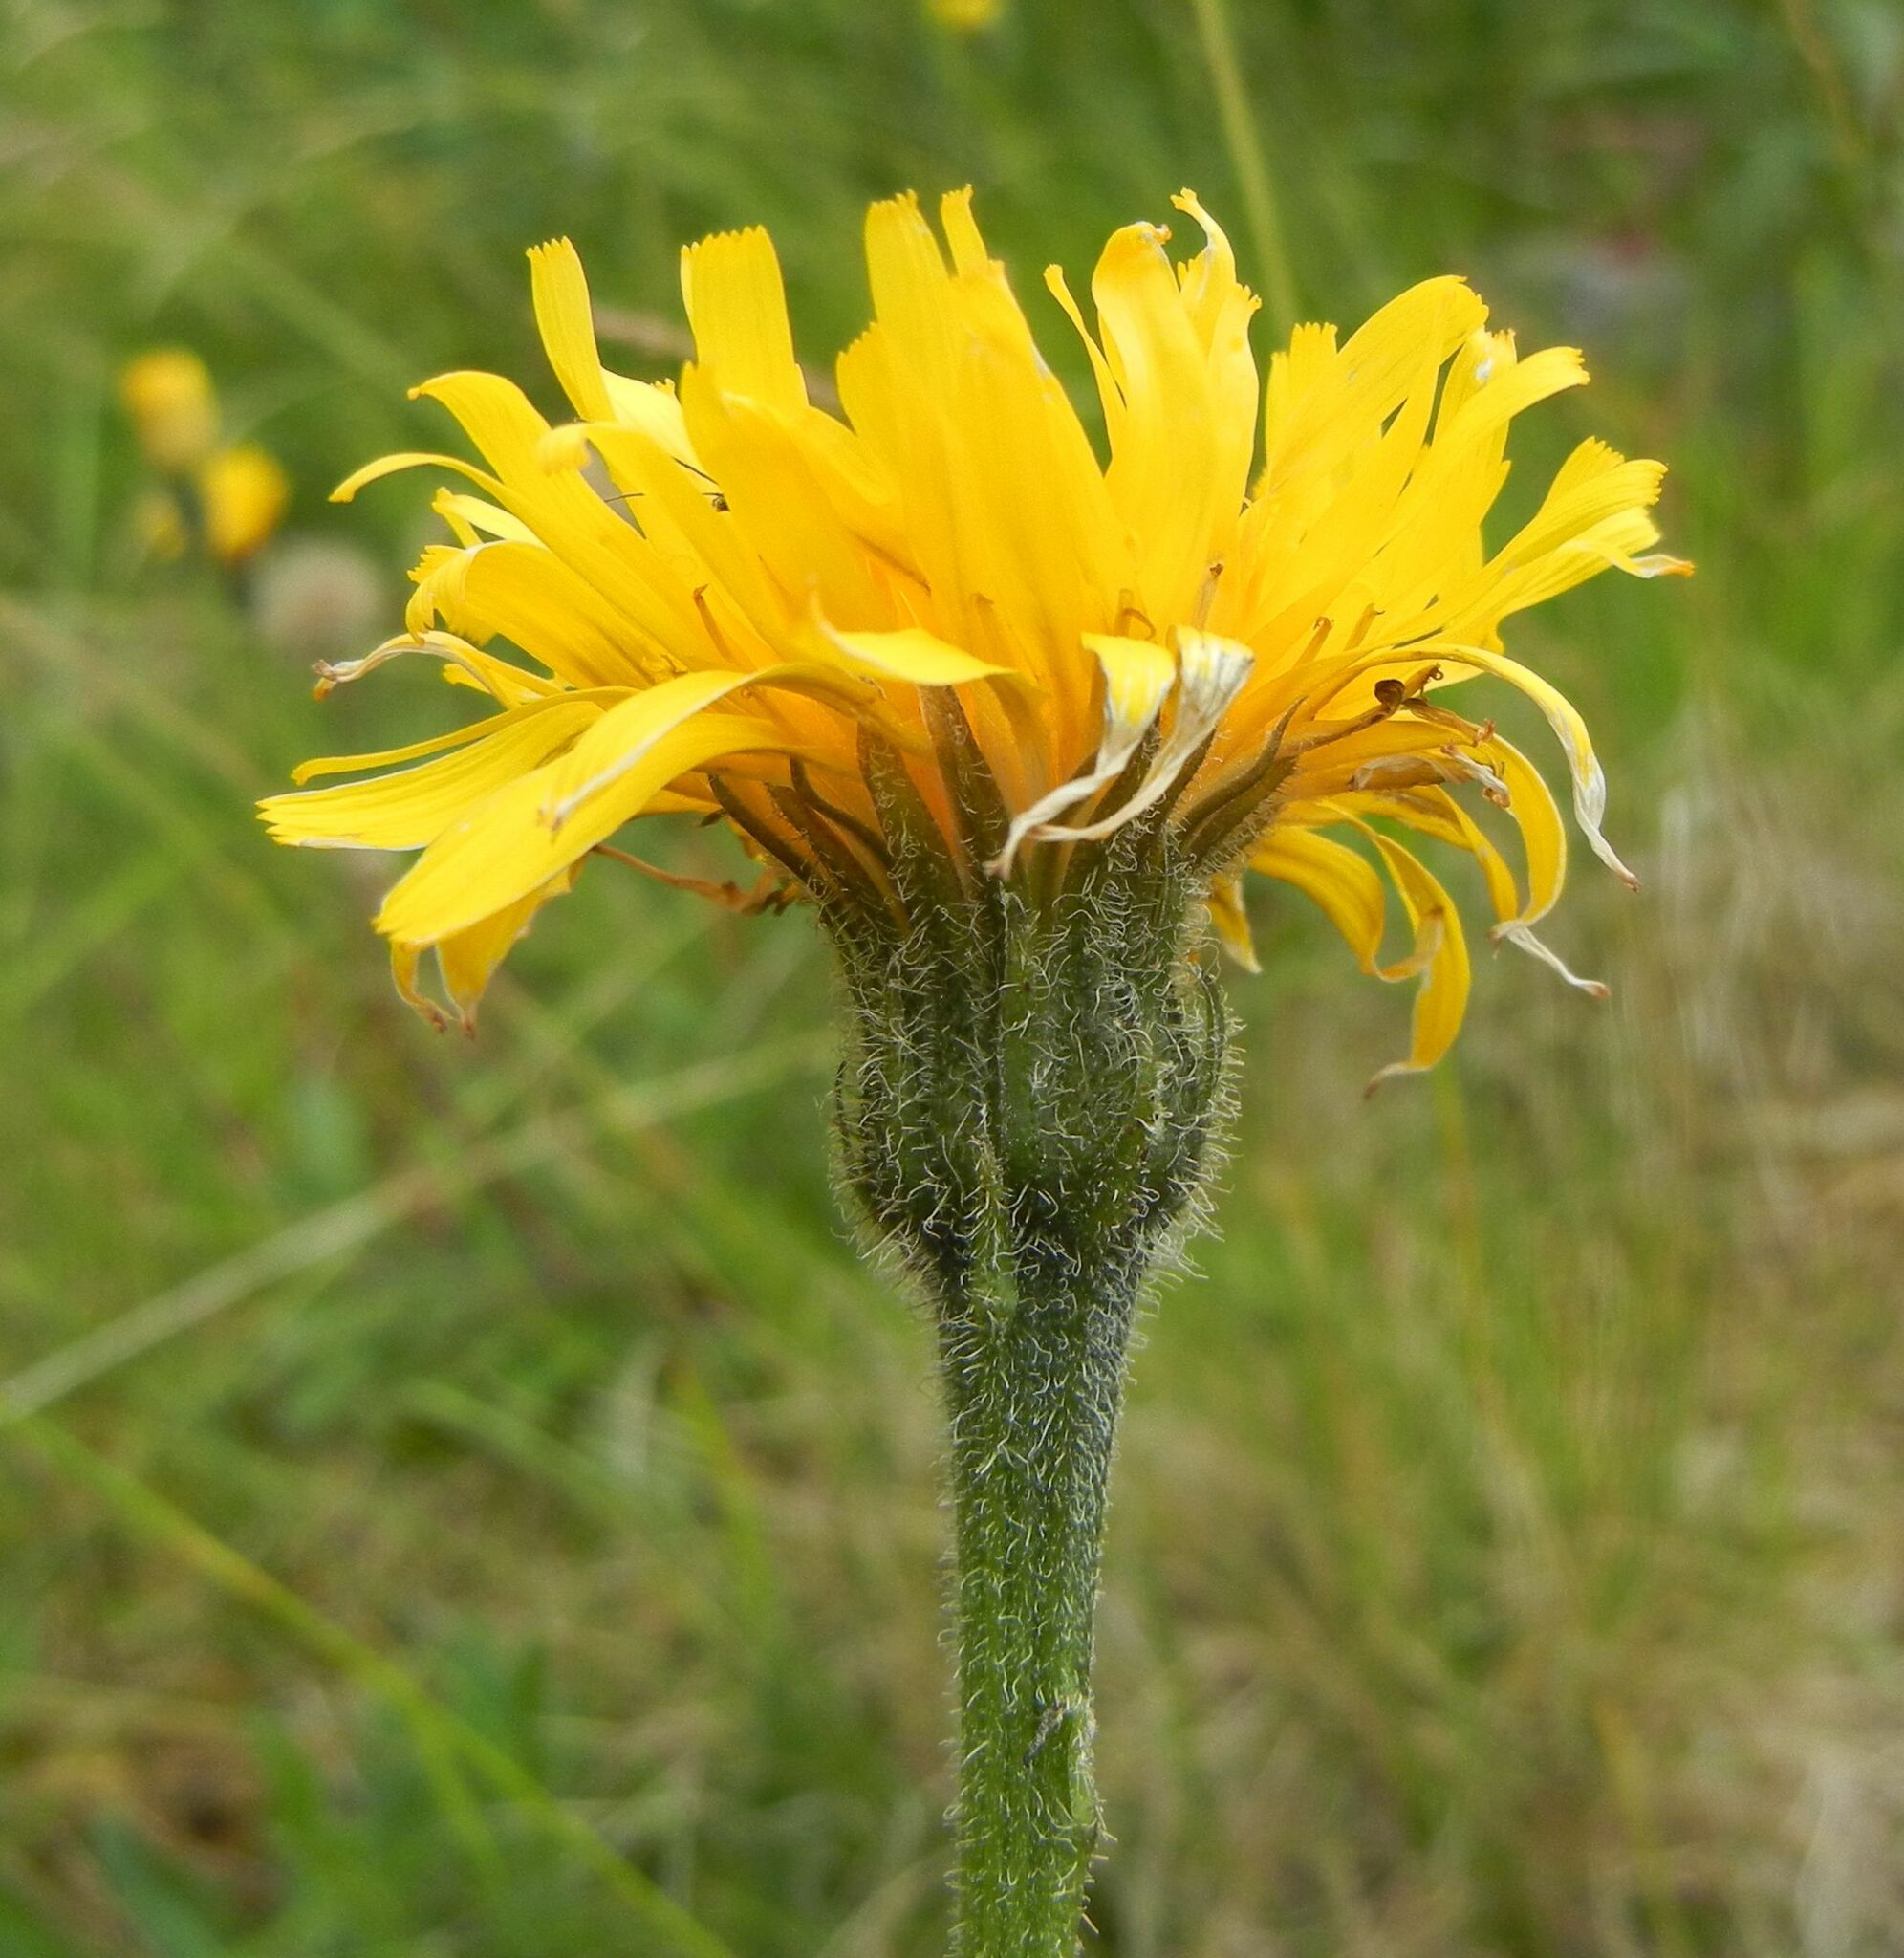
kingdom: Plantae
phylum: Tracheophyta
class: Magnoliopsida
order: Asterales
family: Asteraceae
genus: Leontodon
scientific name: Leontodon hispidus
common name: Rough hawkbit
